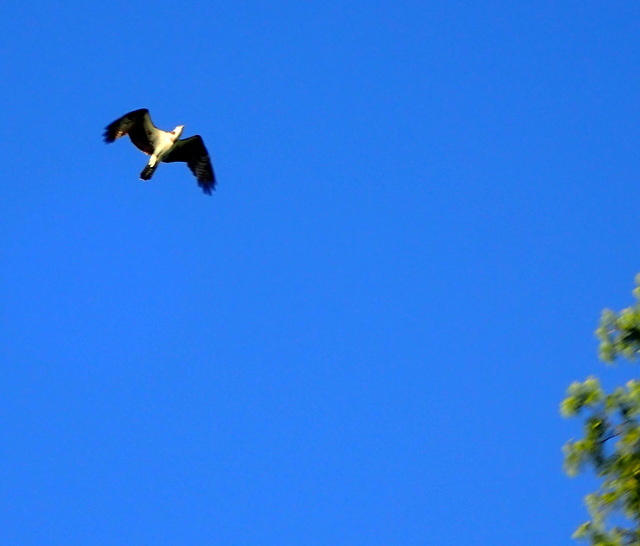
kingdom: Animalia
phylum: Chordata
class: Aves
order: Accipitriformes
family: Pandionidae
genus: Pandion
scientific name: Pandion haliaetus
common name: Osprey
